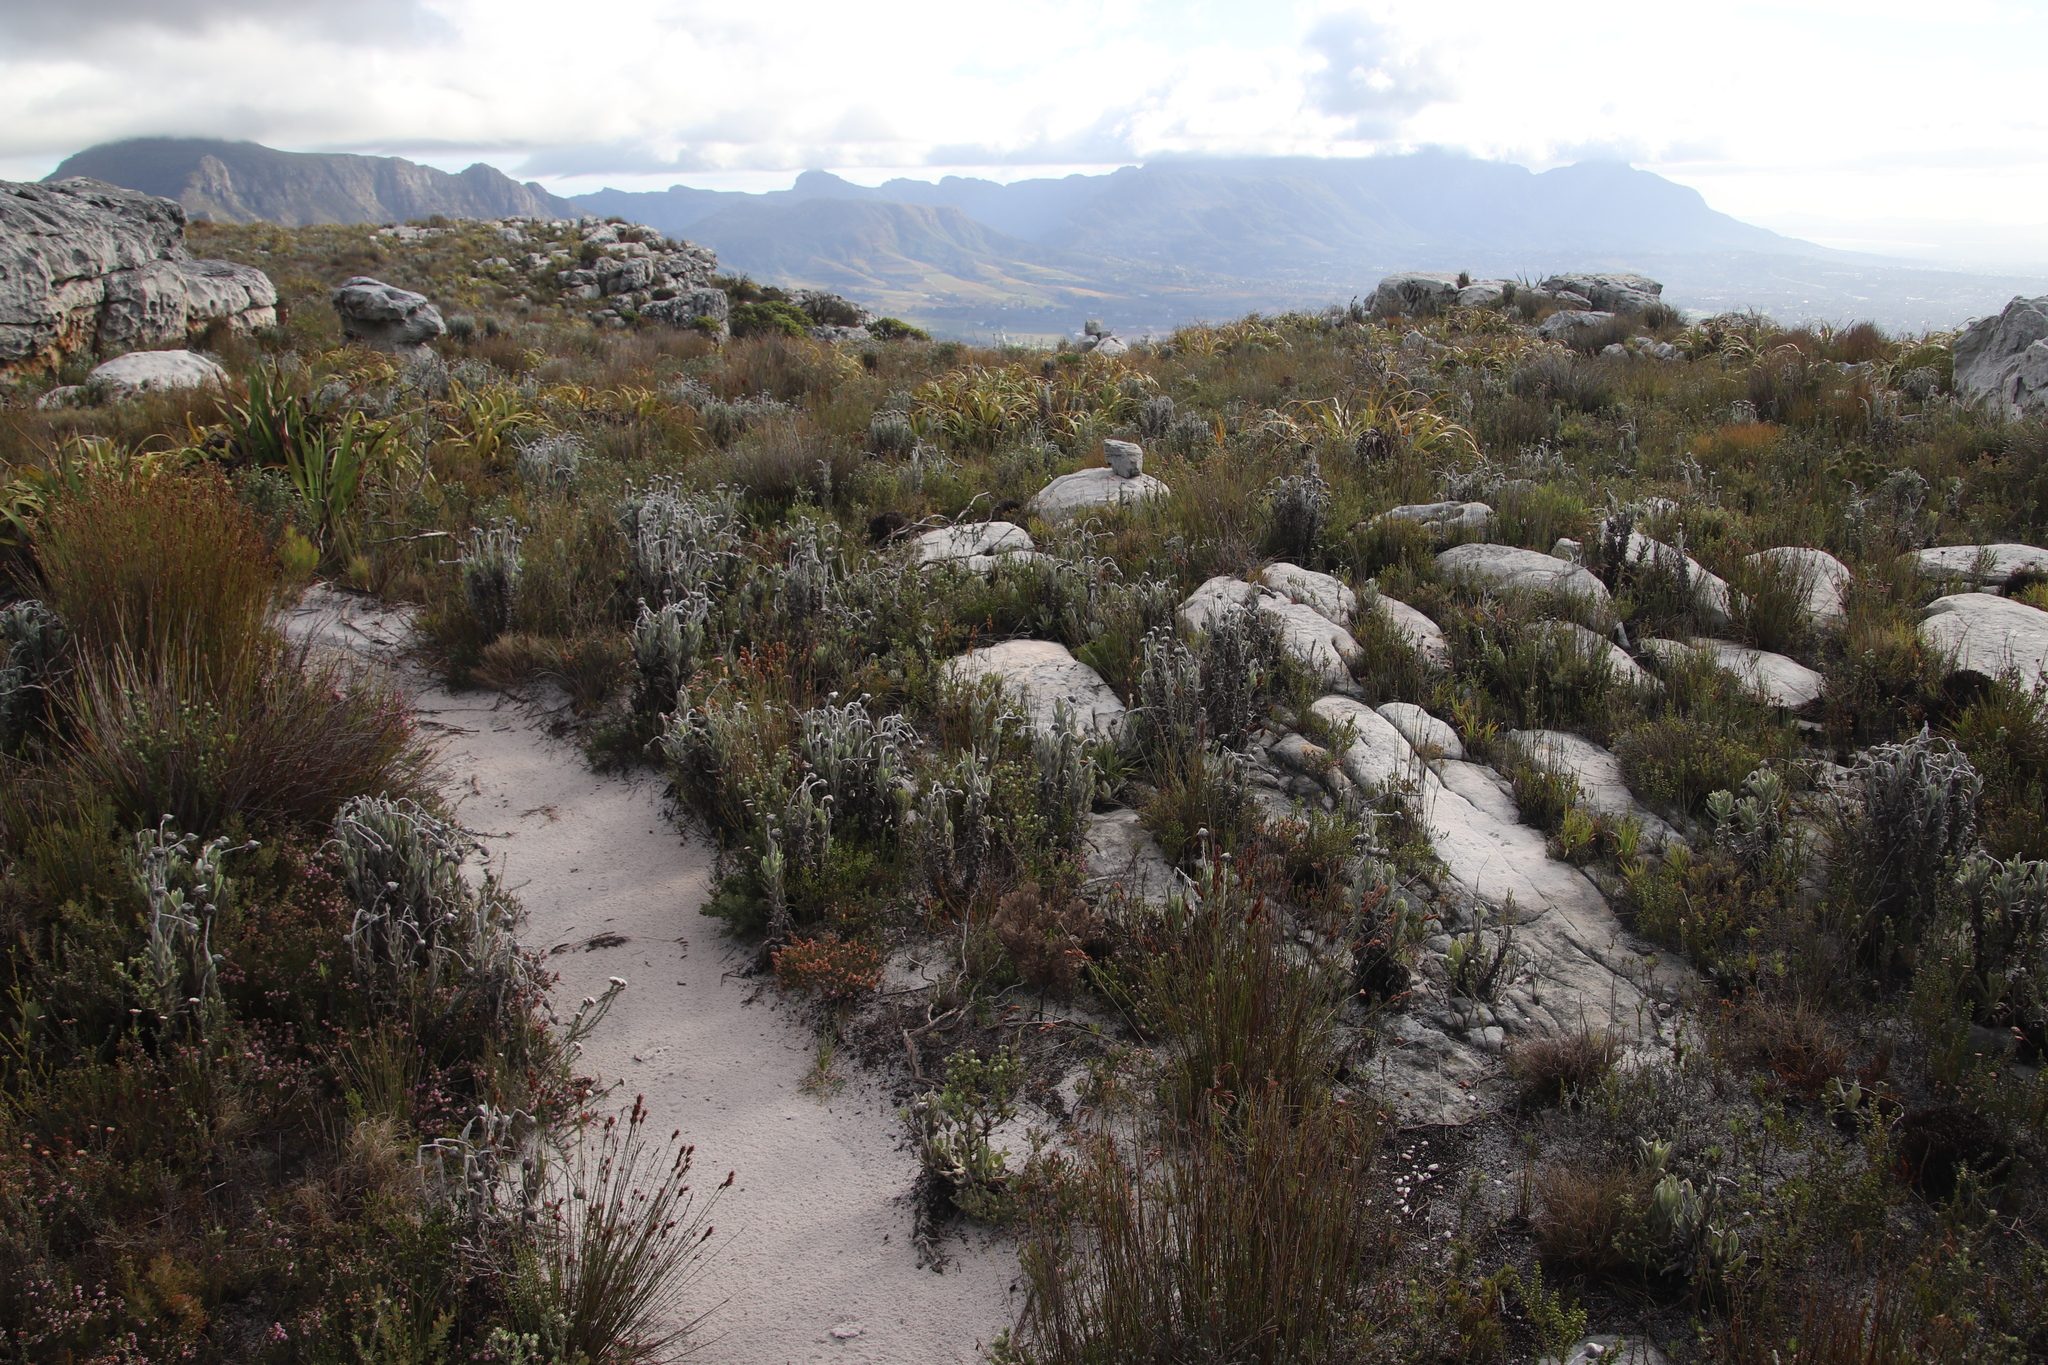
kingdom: Plantae
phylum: Tracheophyta
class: Magnoliopsida
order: Asterales
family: Asteraceae
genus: Syncarpha
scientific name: Syncarpha vestita
